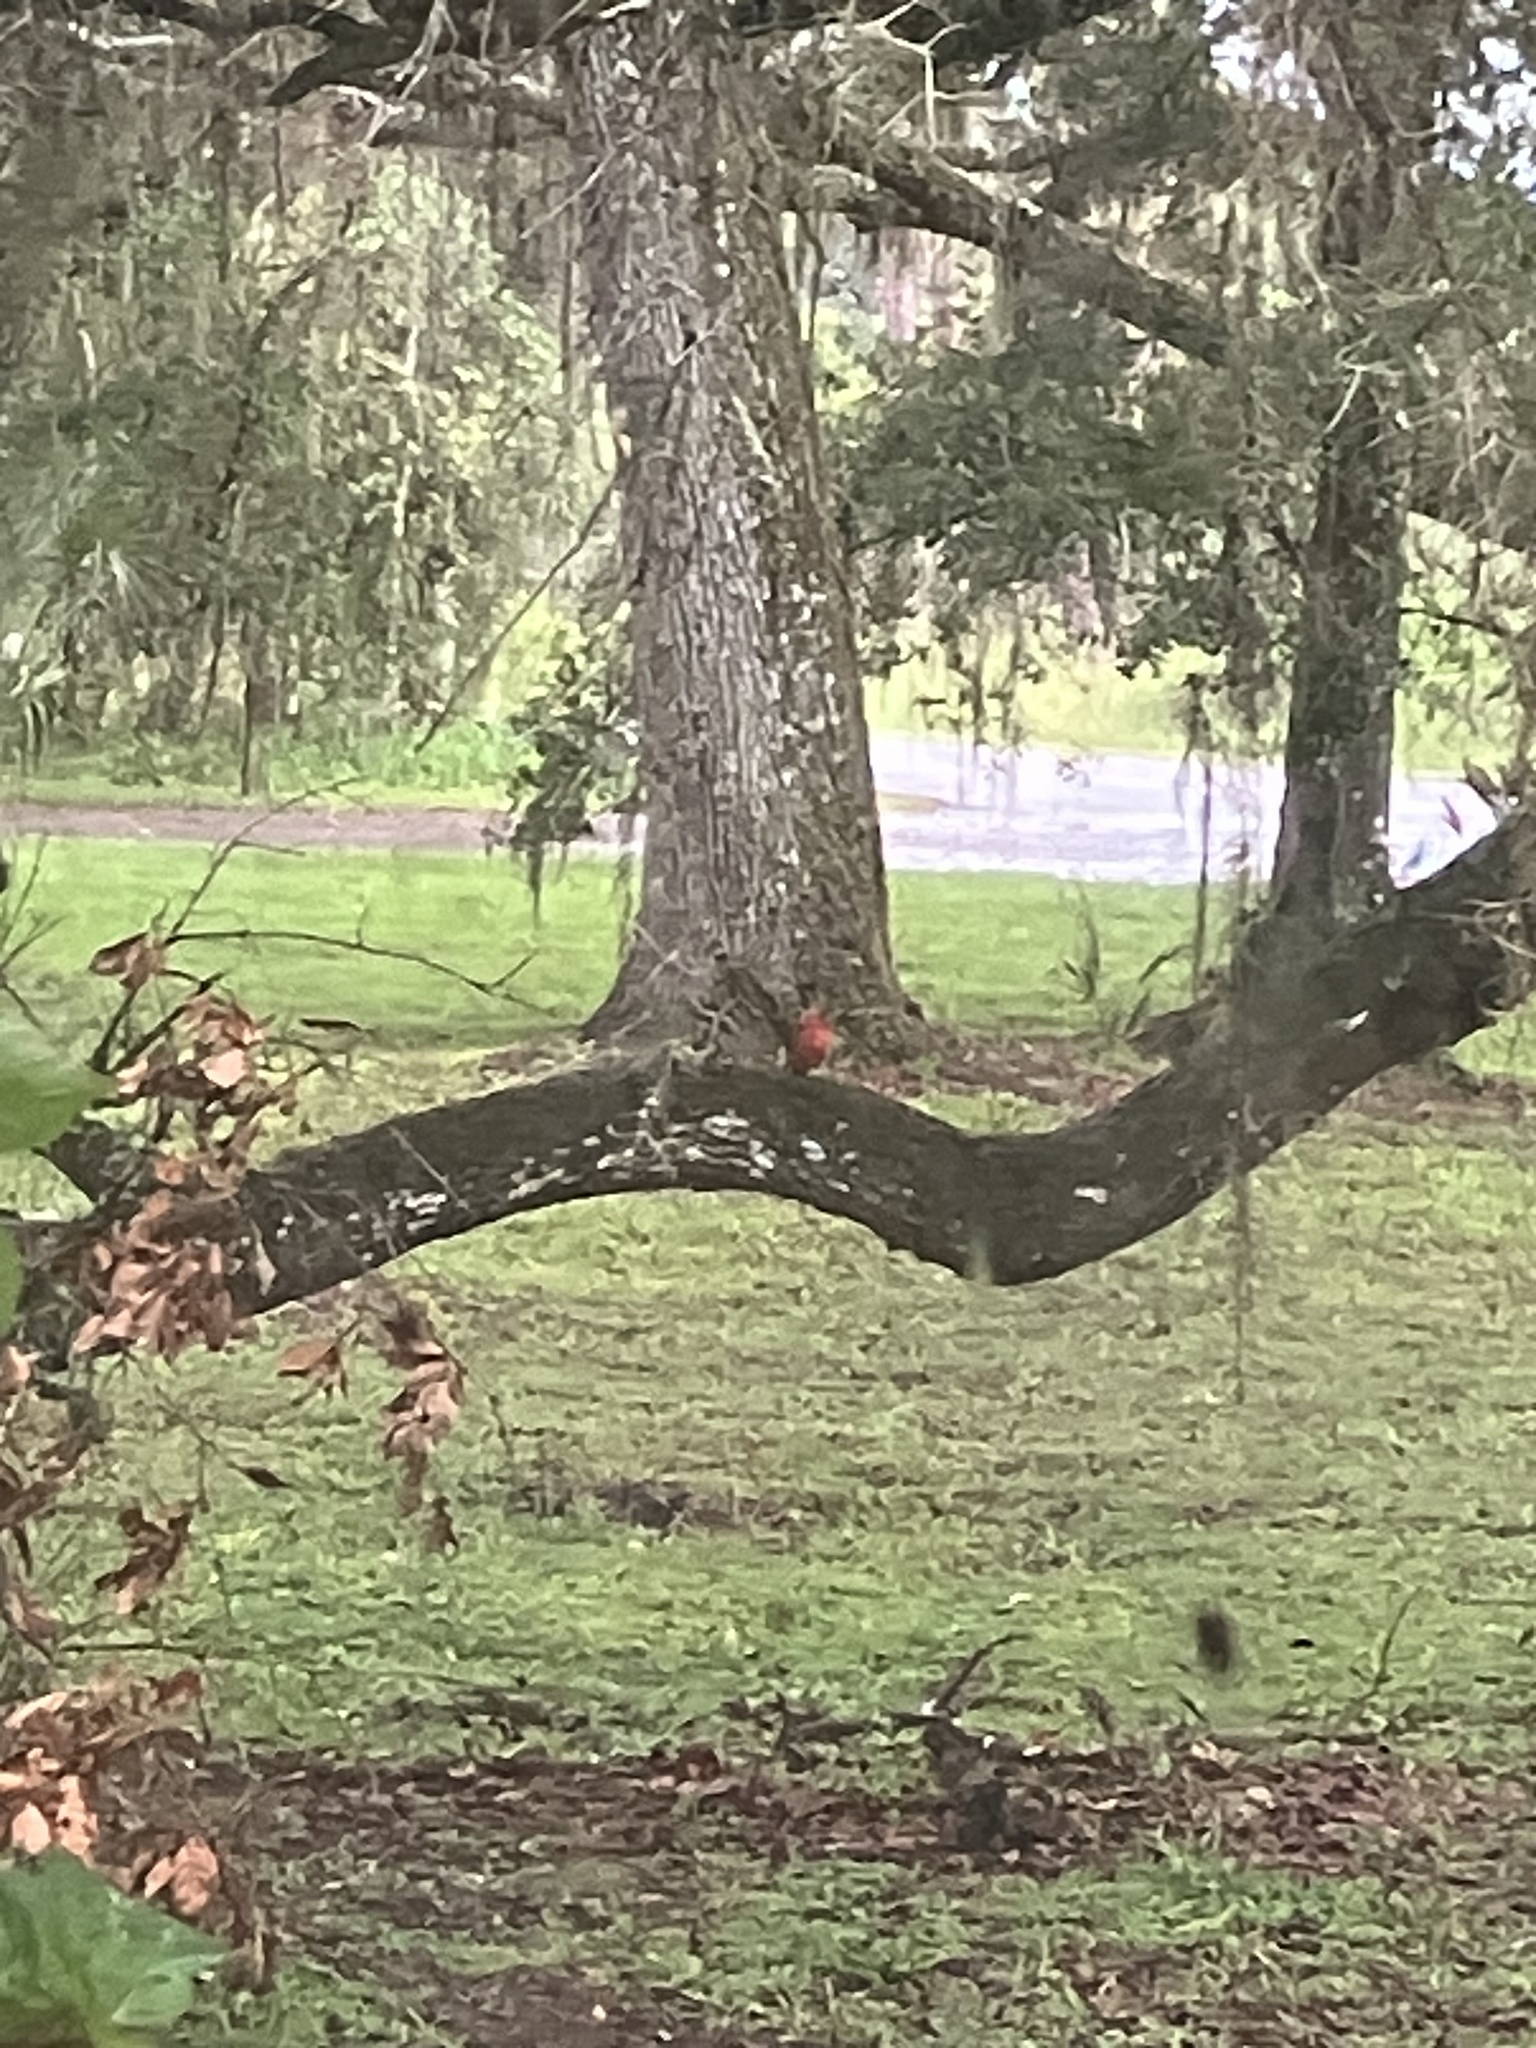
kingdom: Animalia
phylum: Chordata
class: Aves
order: Passeriformes
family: Cardinalidae
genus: Cardinalis
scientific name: Cardinalis cardinalis
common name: Northern cardinal
